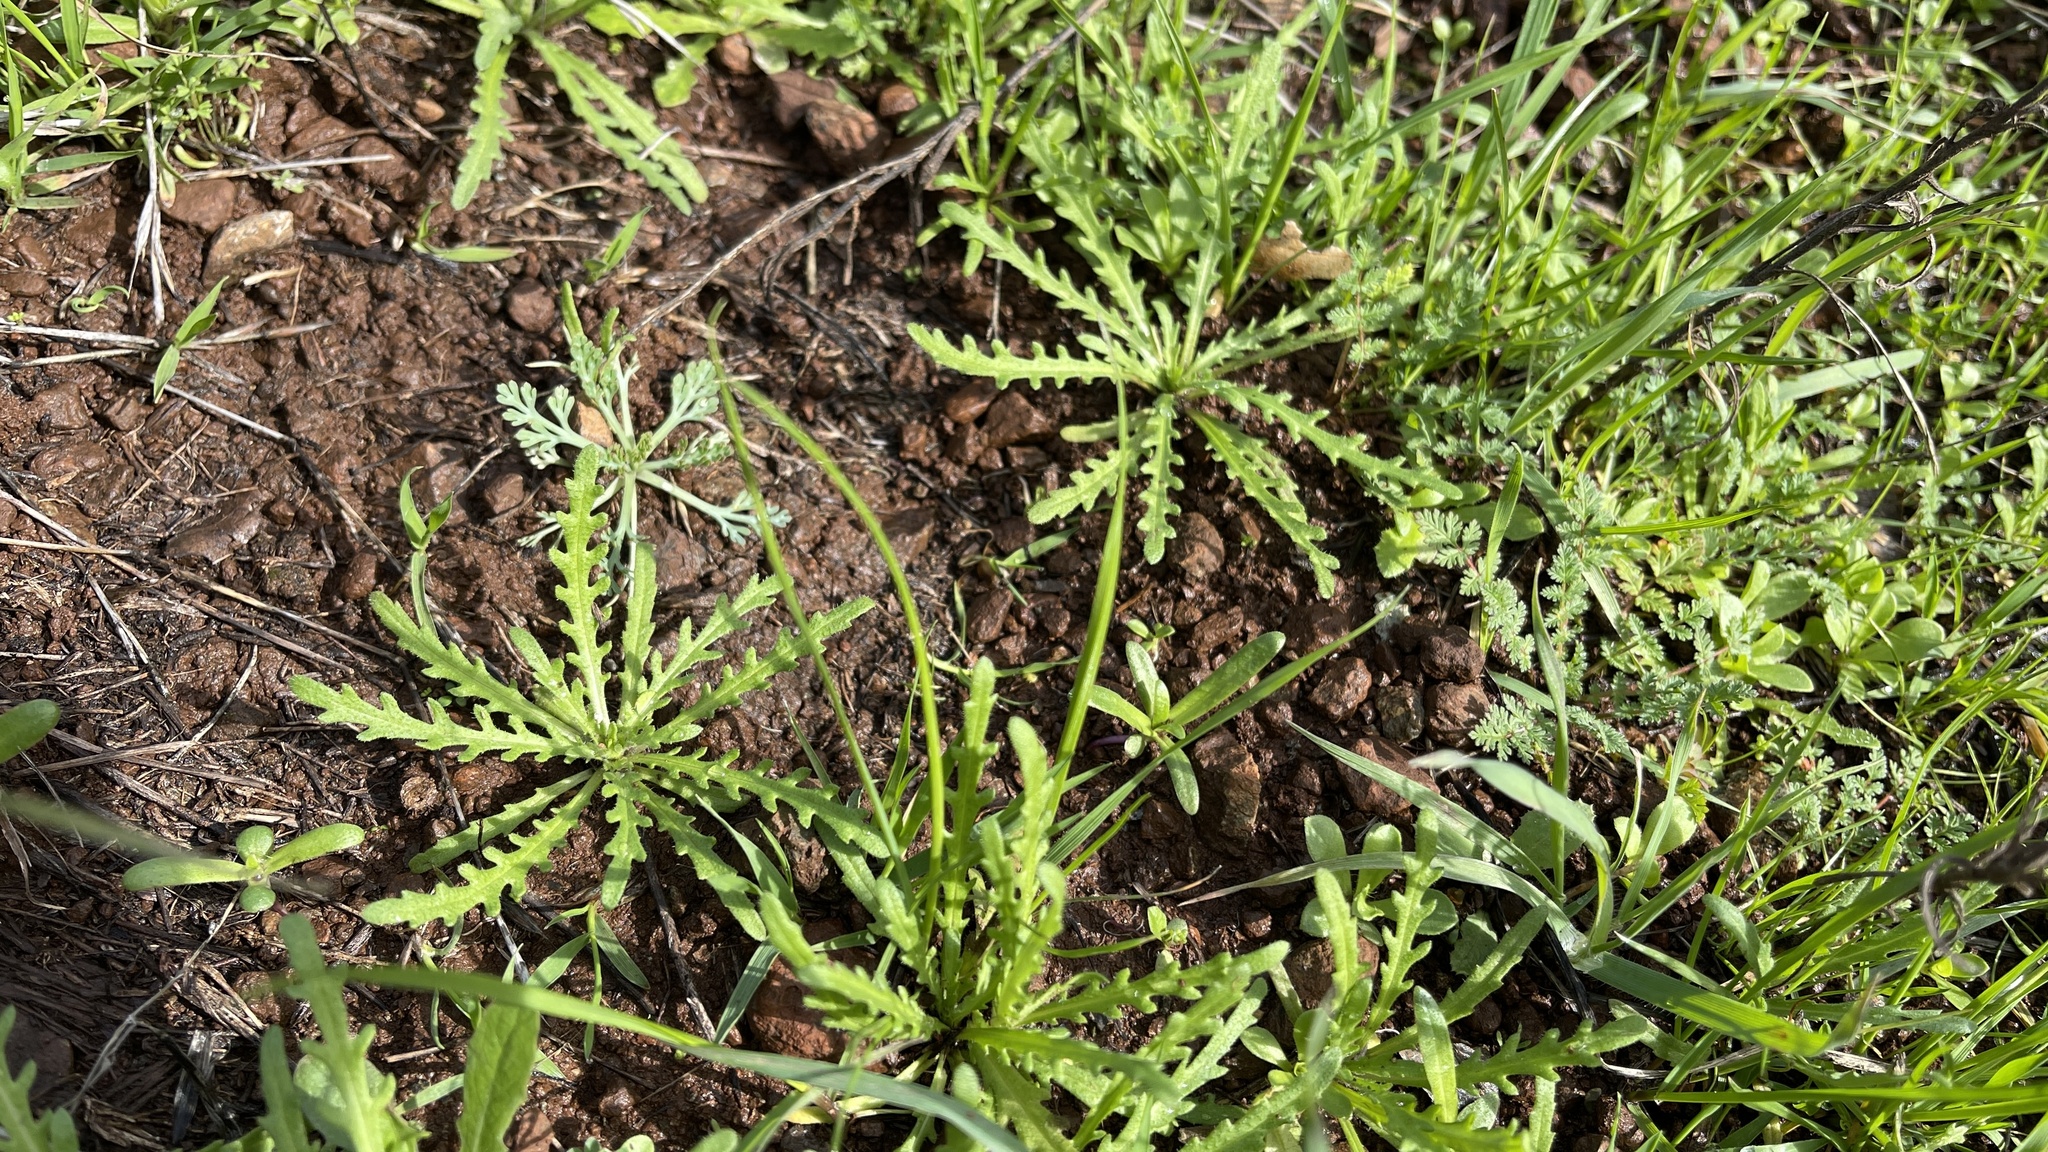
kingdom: Plantae
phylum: Tracheophyta
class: Magnoliopsida
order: Asterales
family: Asteraceae
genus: Layia
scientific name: Layia platyglossa
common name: Tidy-tips
